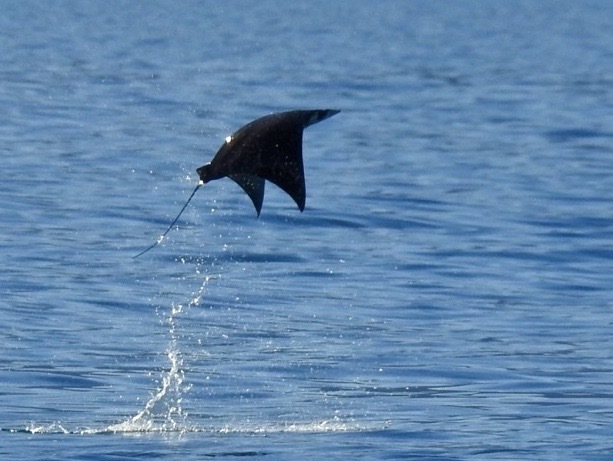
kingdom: Animalia
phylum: Chordata
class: Elasmobranchii
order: Myliobatiformes
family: Myliobatidae
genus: Mobula
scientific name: Mobula munkiana
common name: Pygmy devil ray
